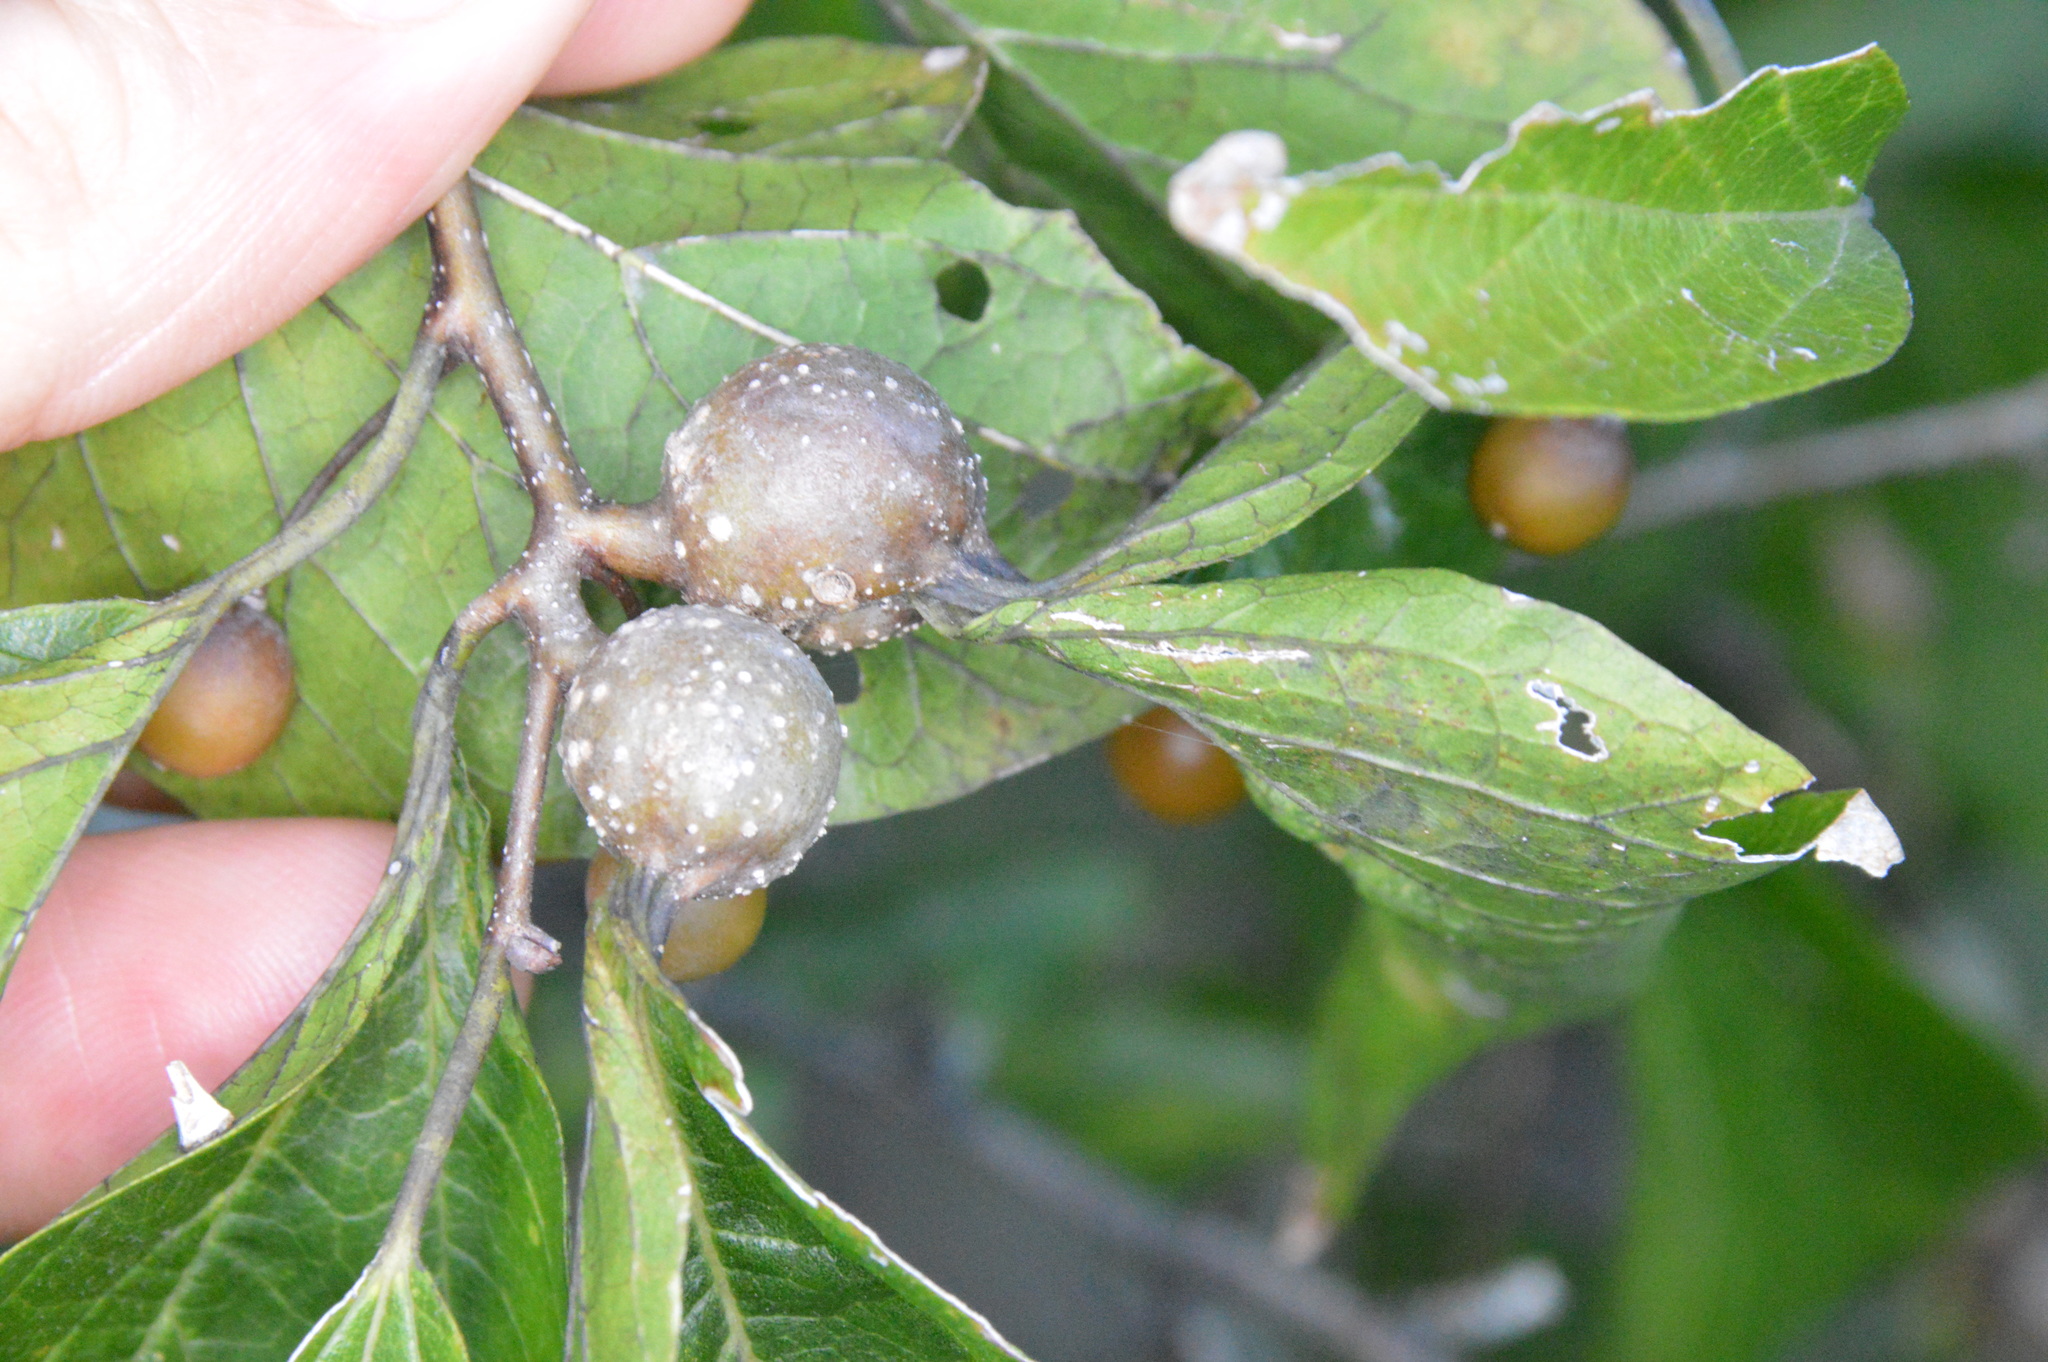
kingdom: Animalia
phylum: Arthropoda
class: Insecta
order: Hemiptera
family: Aphalaridae
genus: Pachypsylla
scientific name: Pachypsylla venusta
